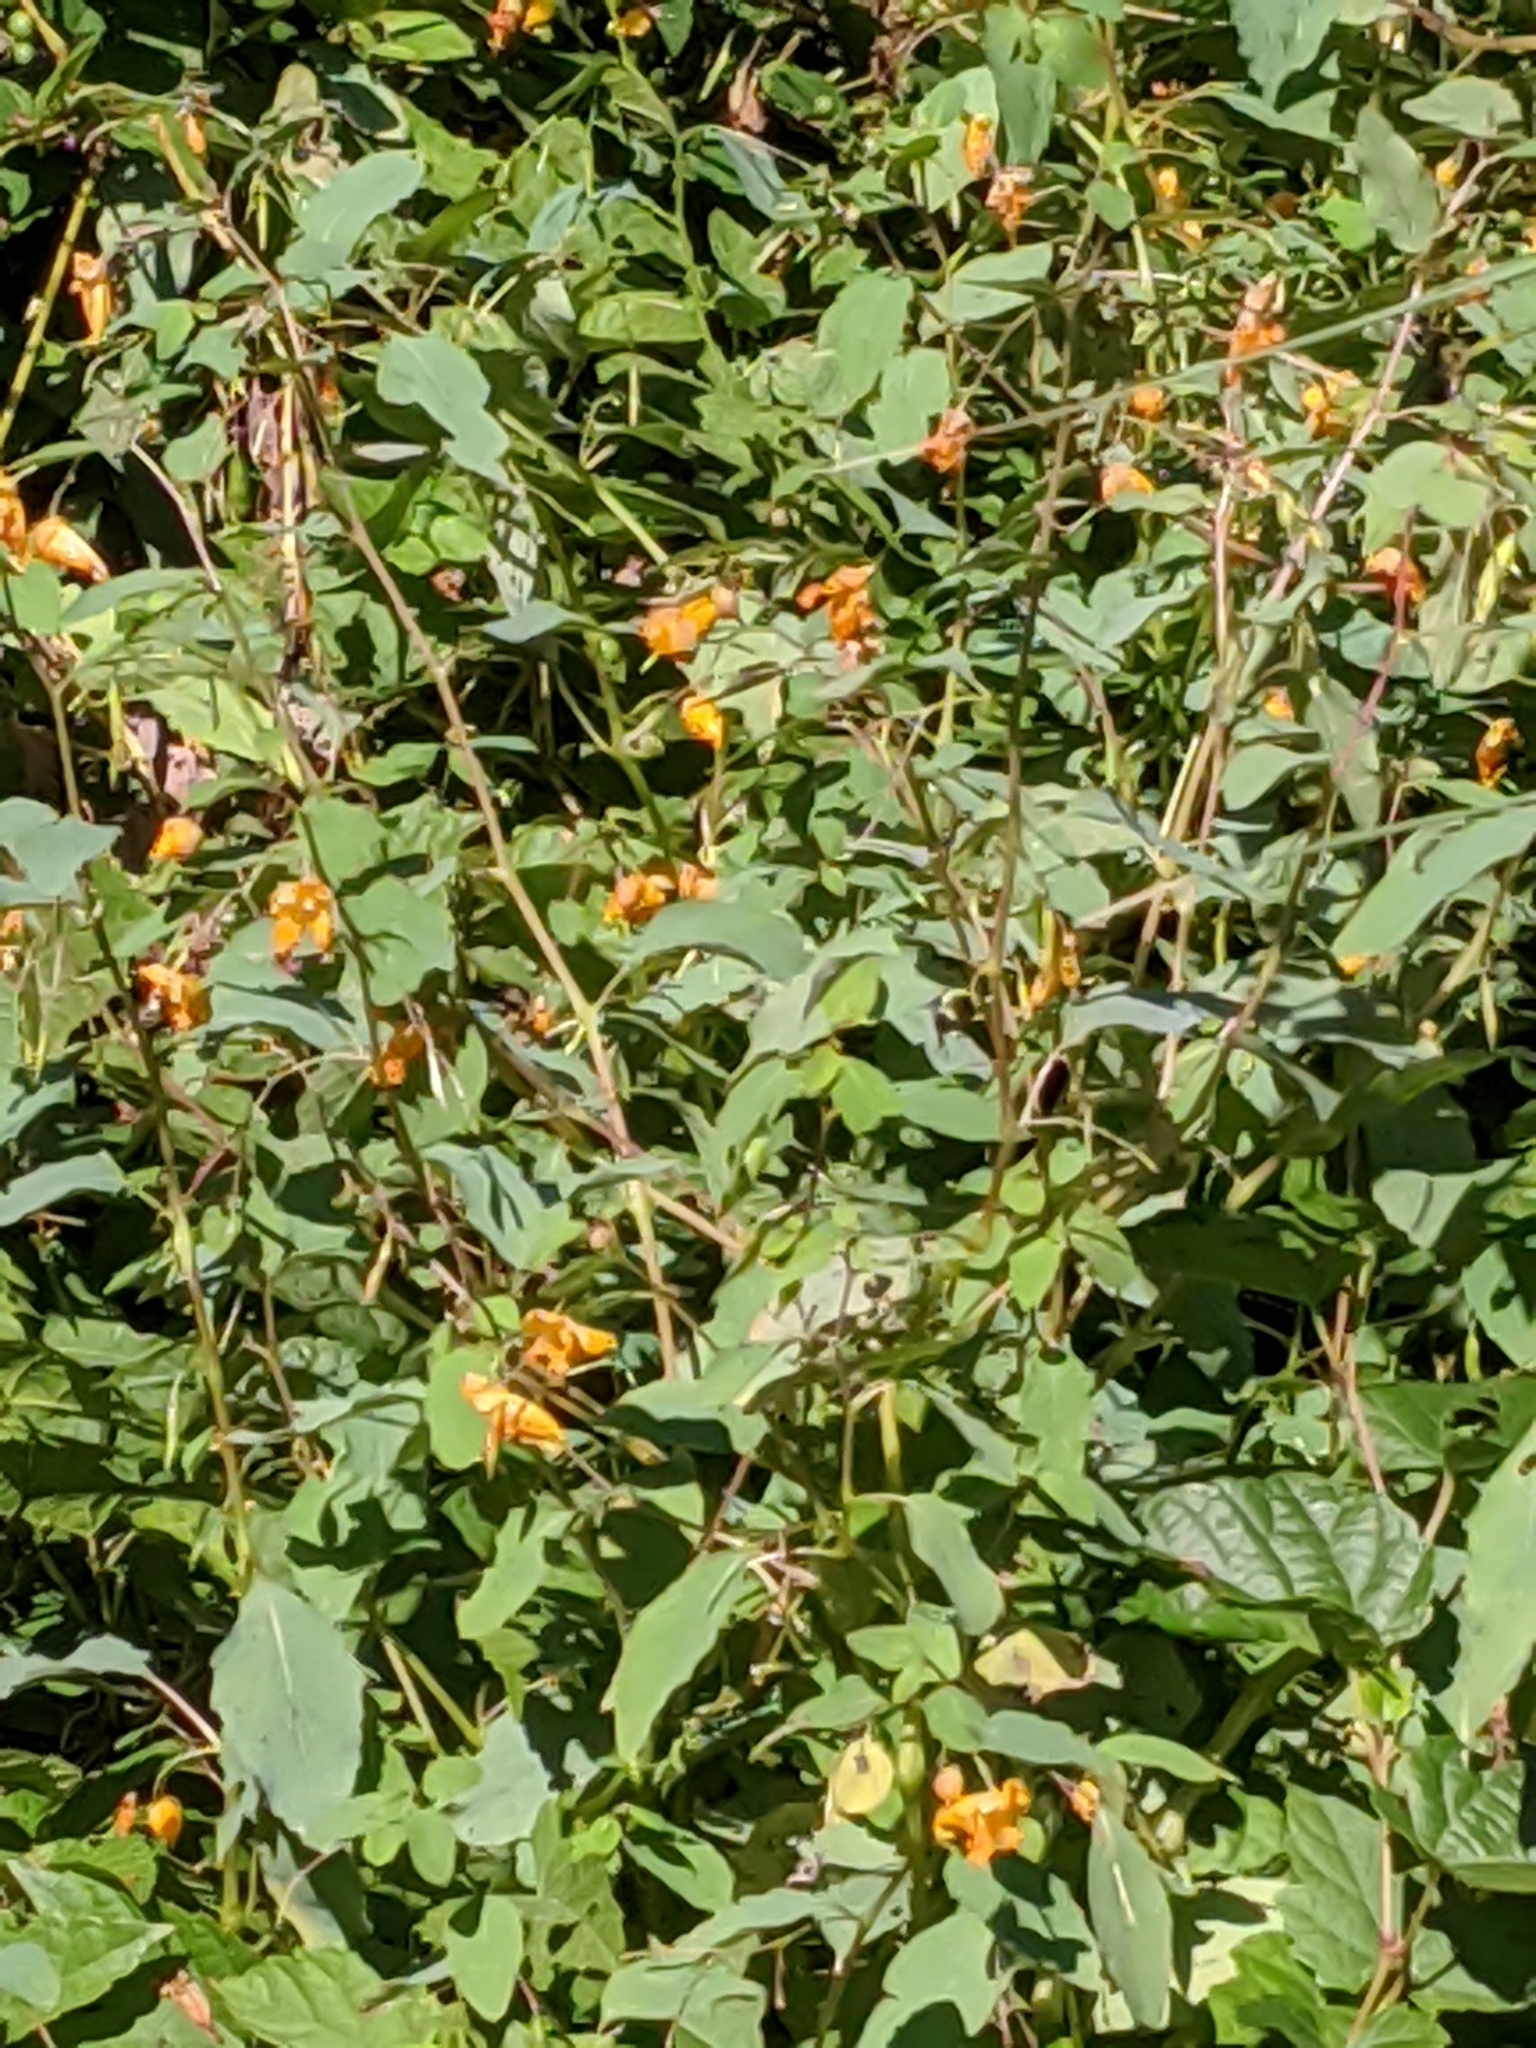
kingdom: Plantae
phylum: Tracheophyta
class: Magnoliopsida
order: Ericales
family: Balsaminaceae
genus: Impatiens
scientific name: Impatiens capensis
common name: Orange balsam
